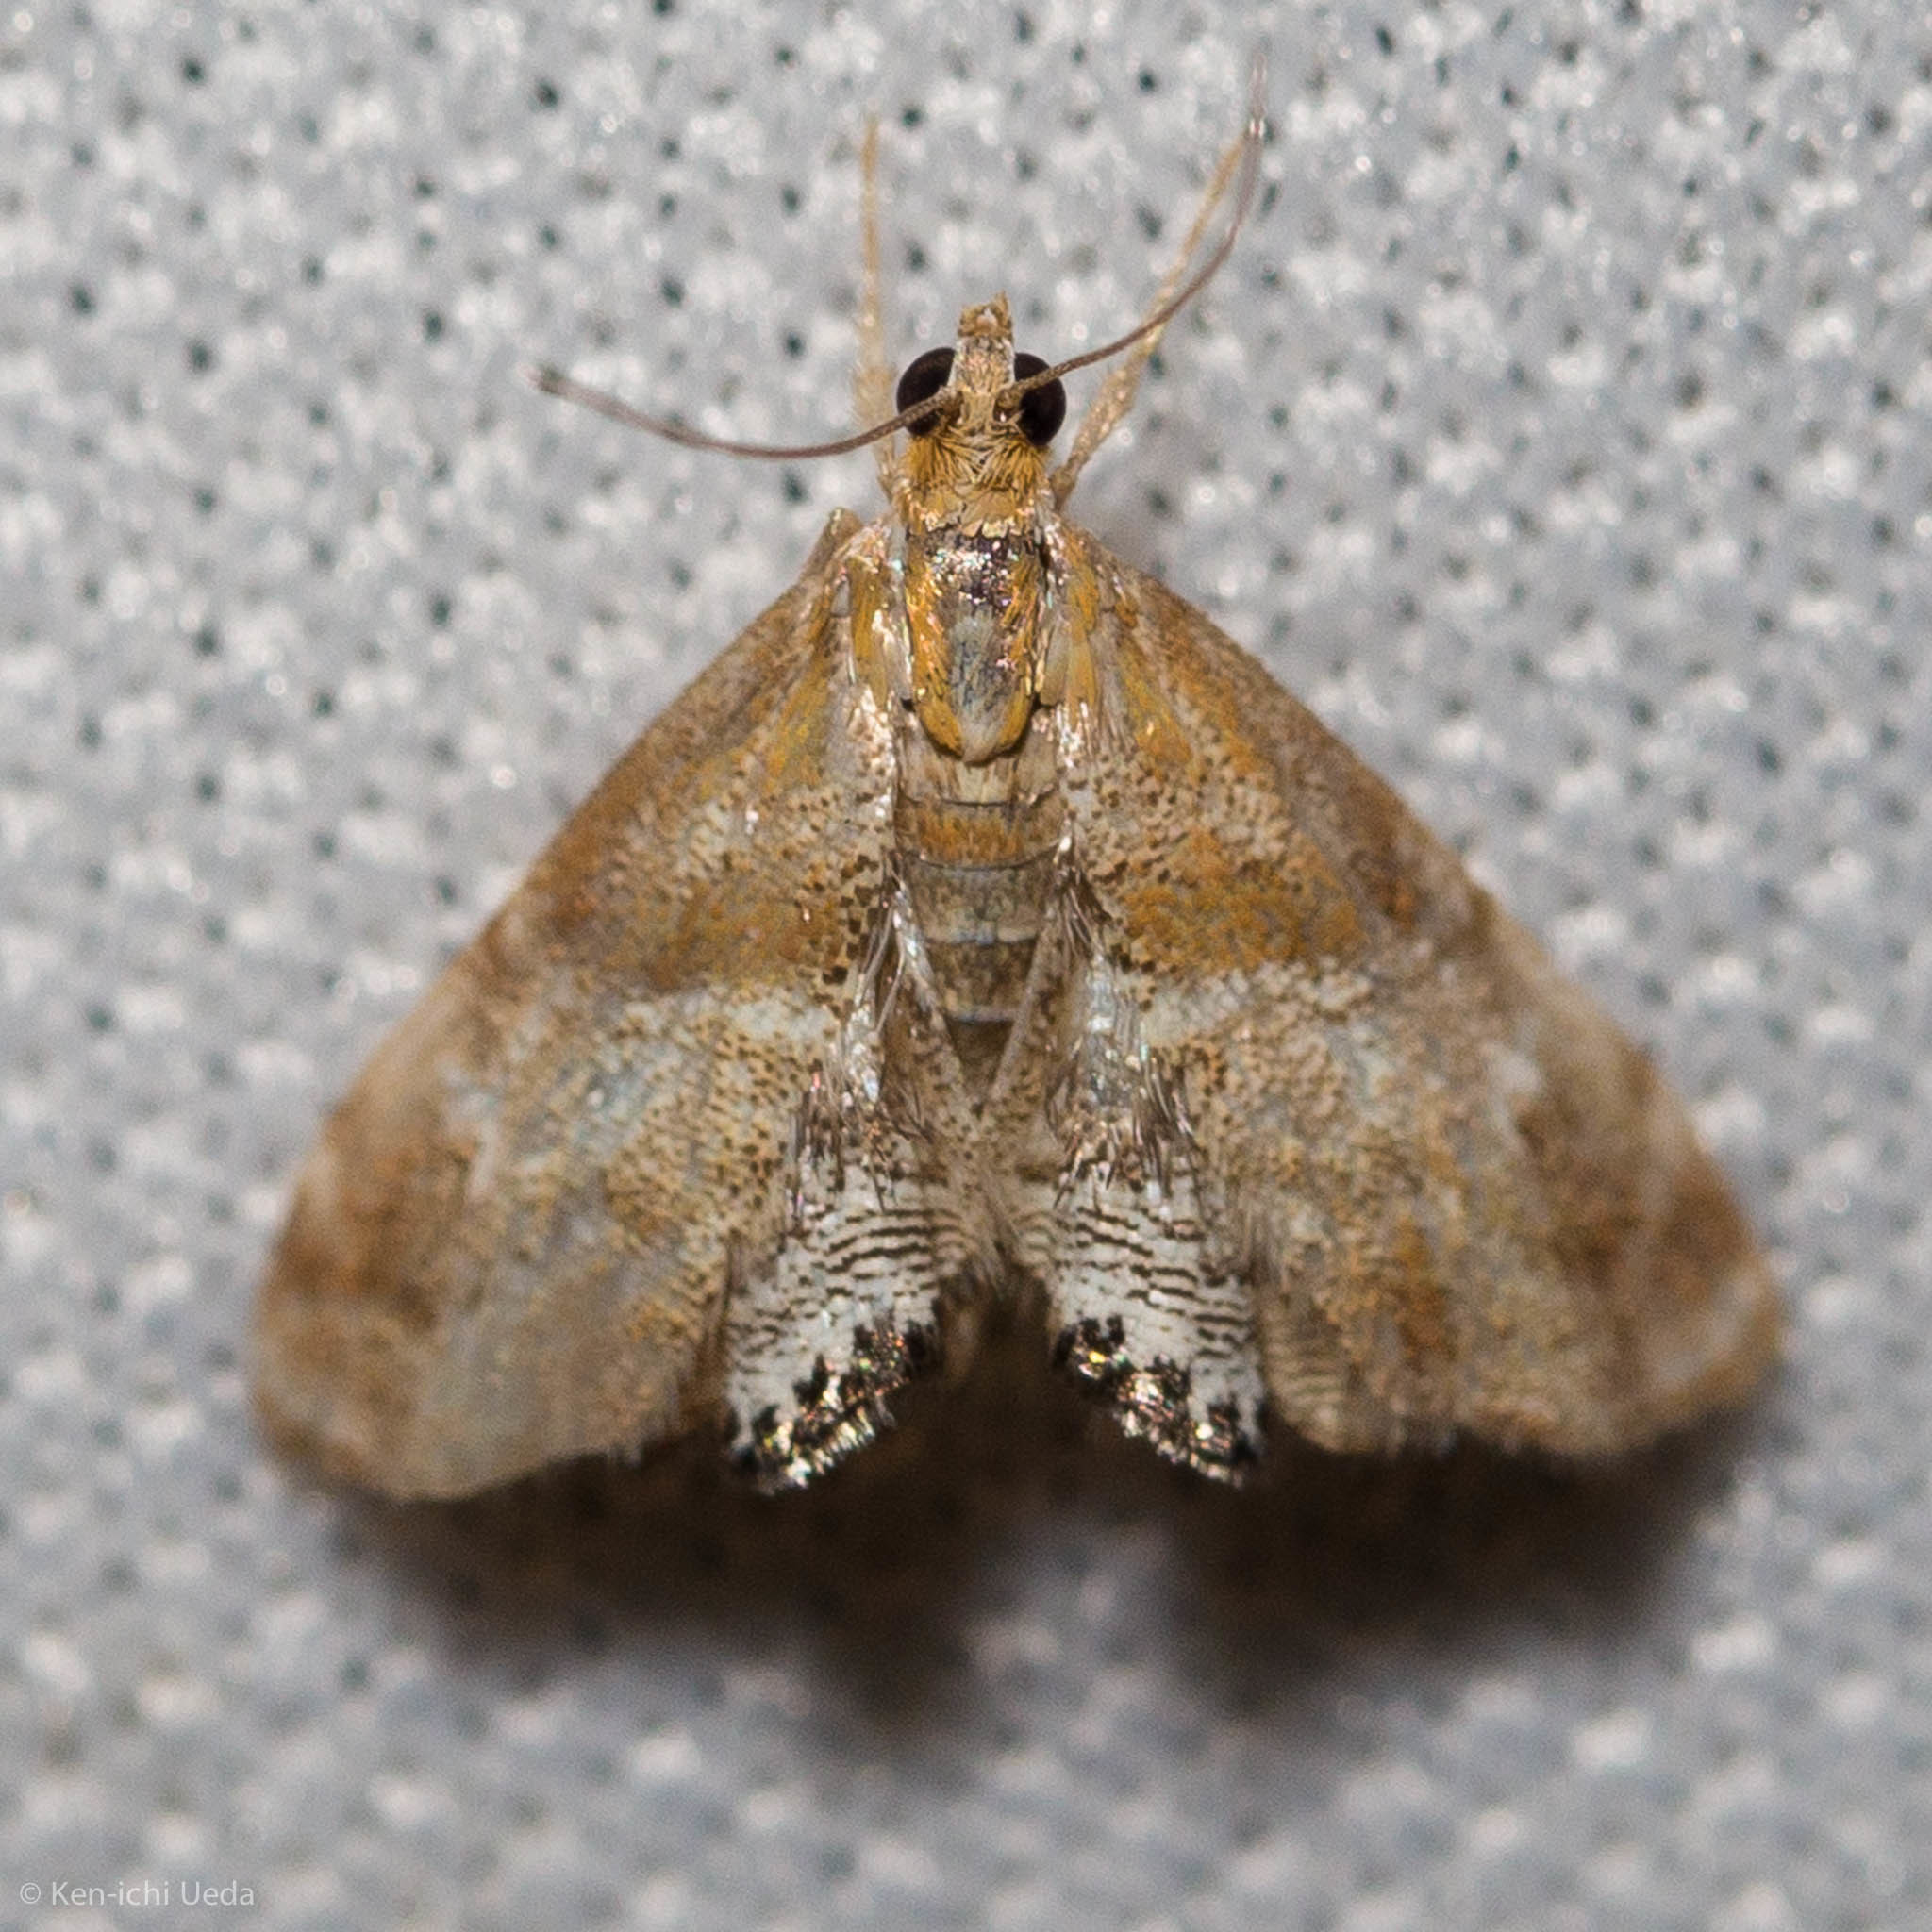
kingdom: Animalia
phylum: Arthropoda
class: Insecta
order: Lepidoptera
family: Crambidae
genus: Dicymolomia
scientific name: Dicymolomia metalliferalis
